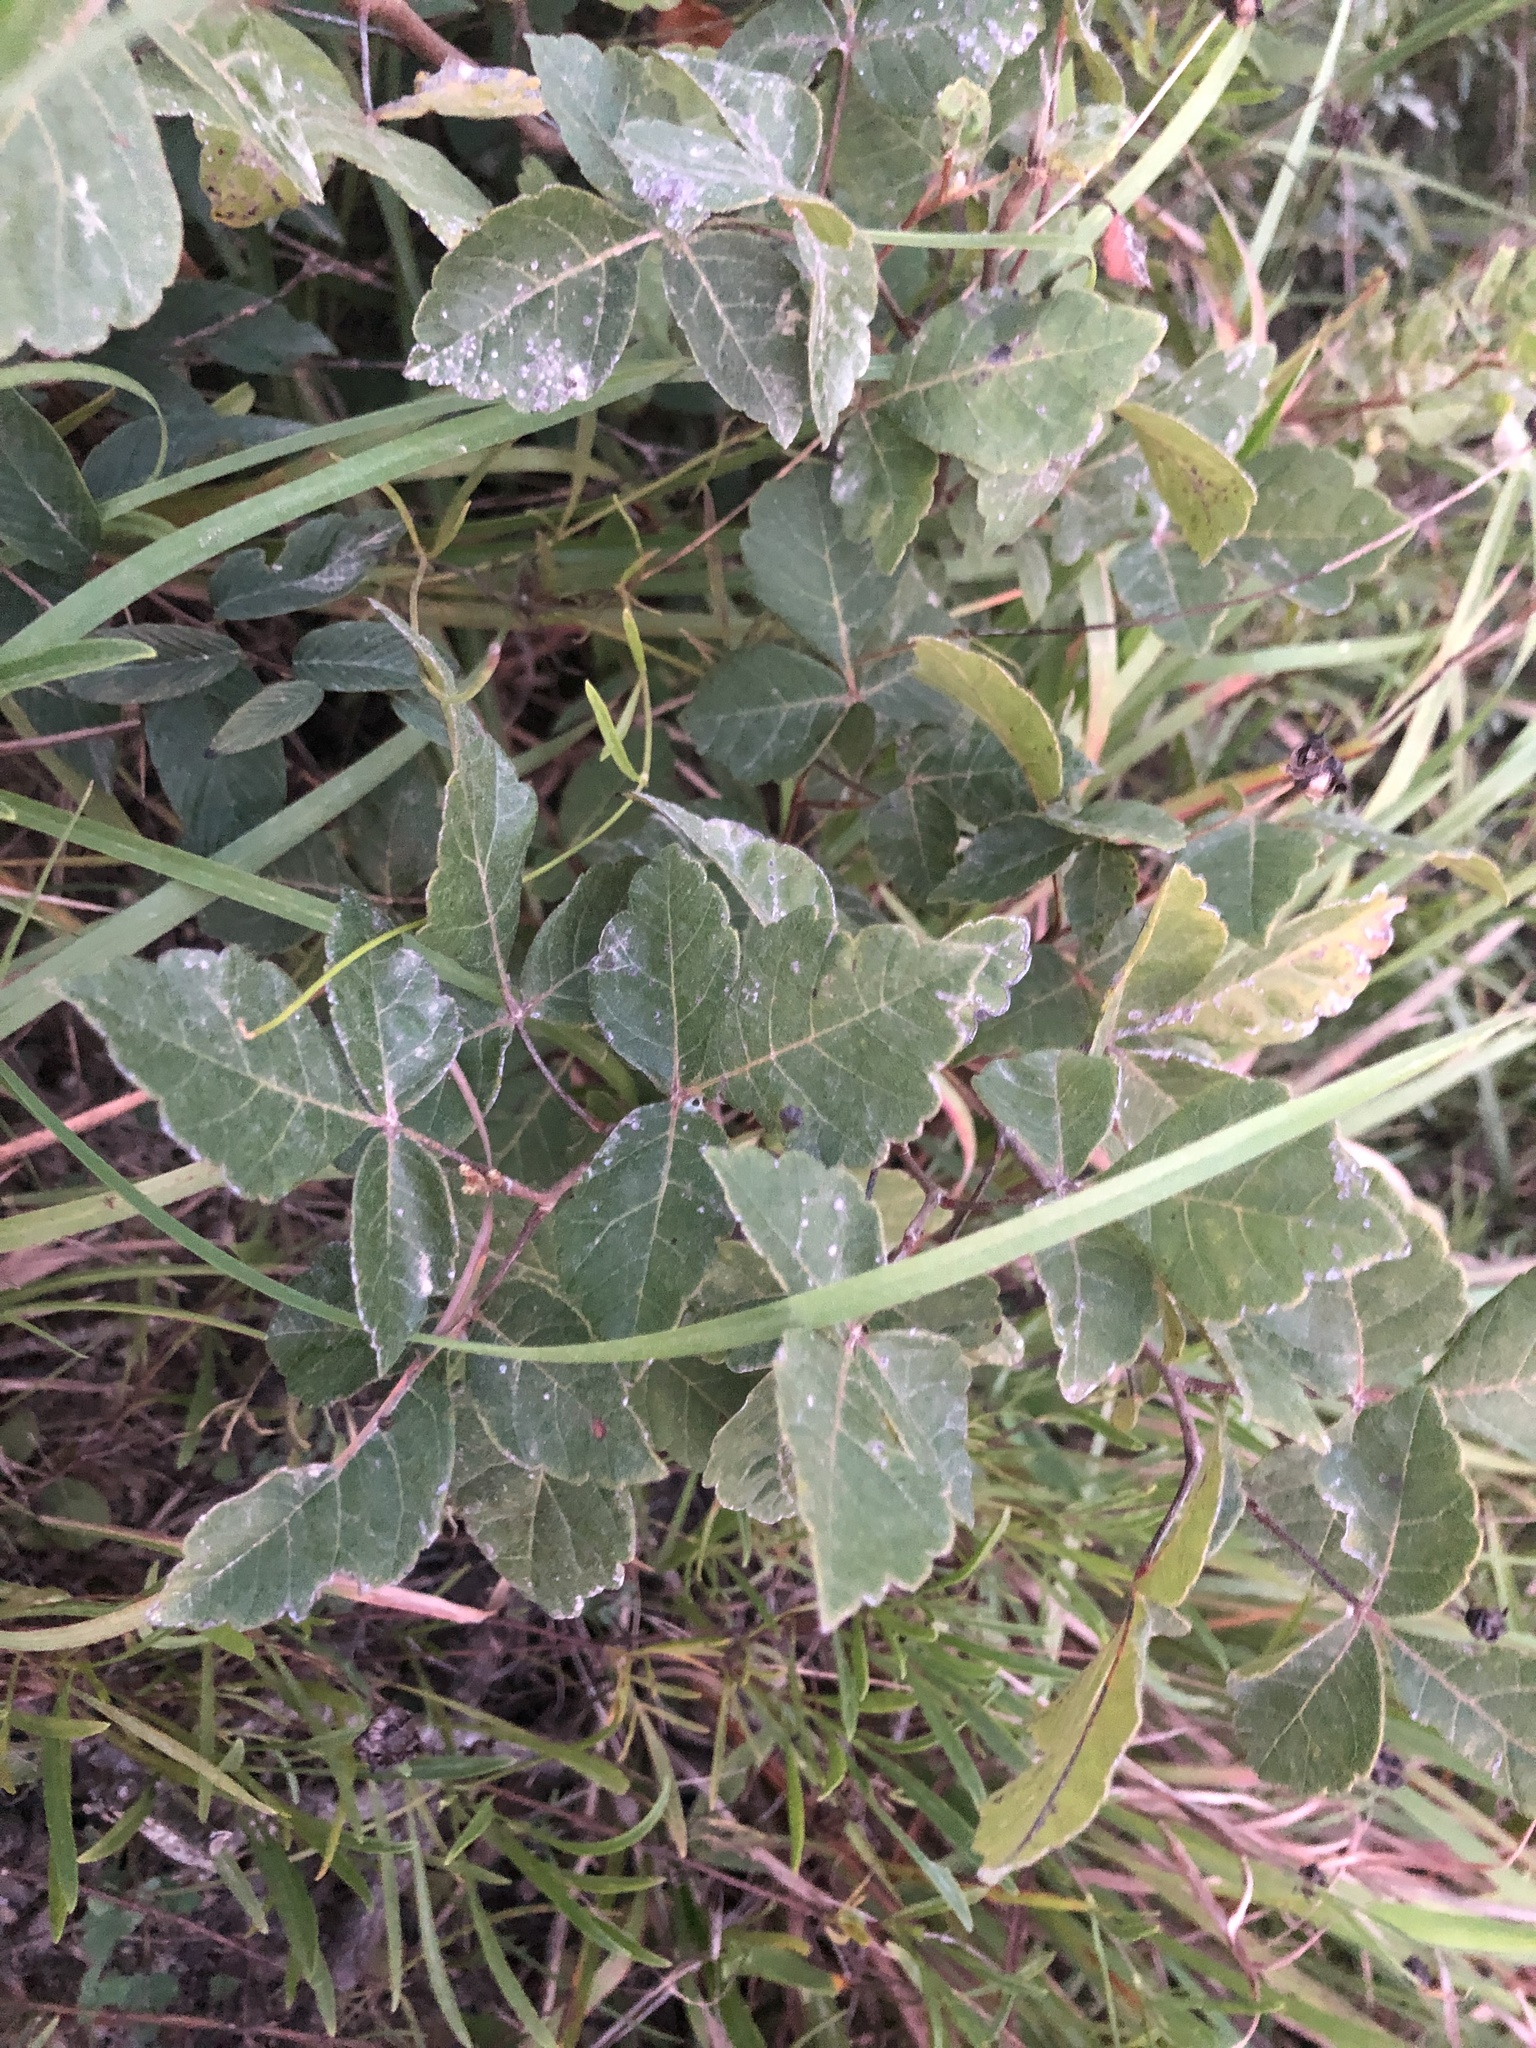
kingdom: Plantae
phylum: Tracheophyta
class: Magnoliopsida
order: Sapindales
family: Anacardiaceae
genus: Rhus
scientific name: Rhus aromatica
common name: Aromatic sumac
